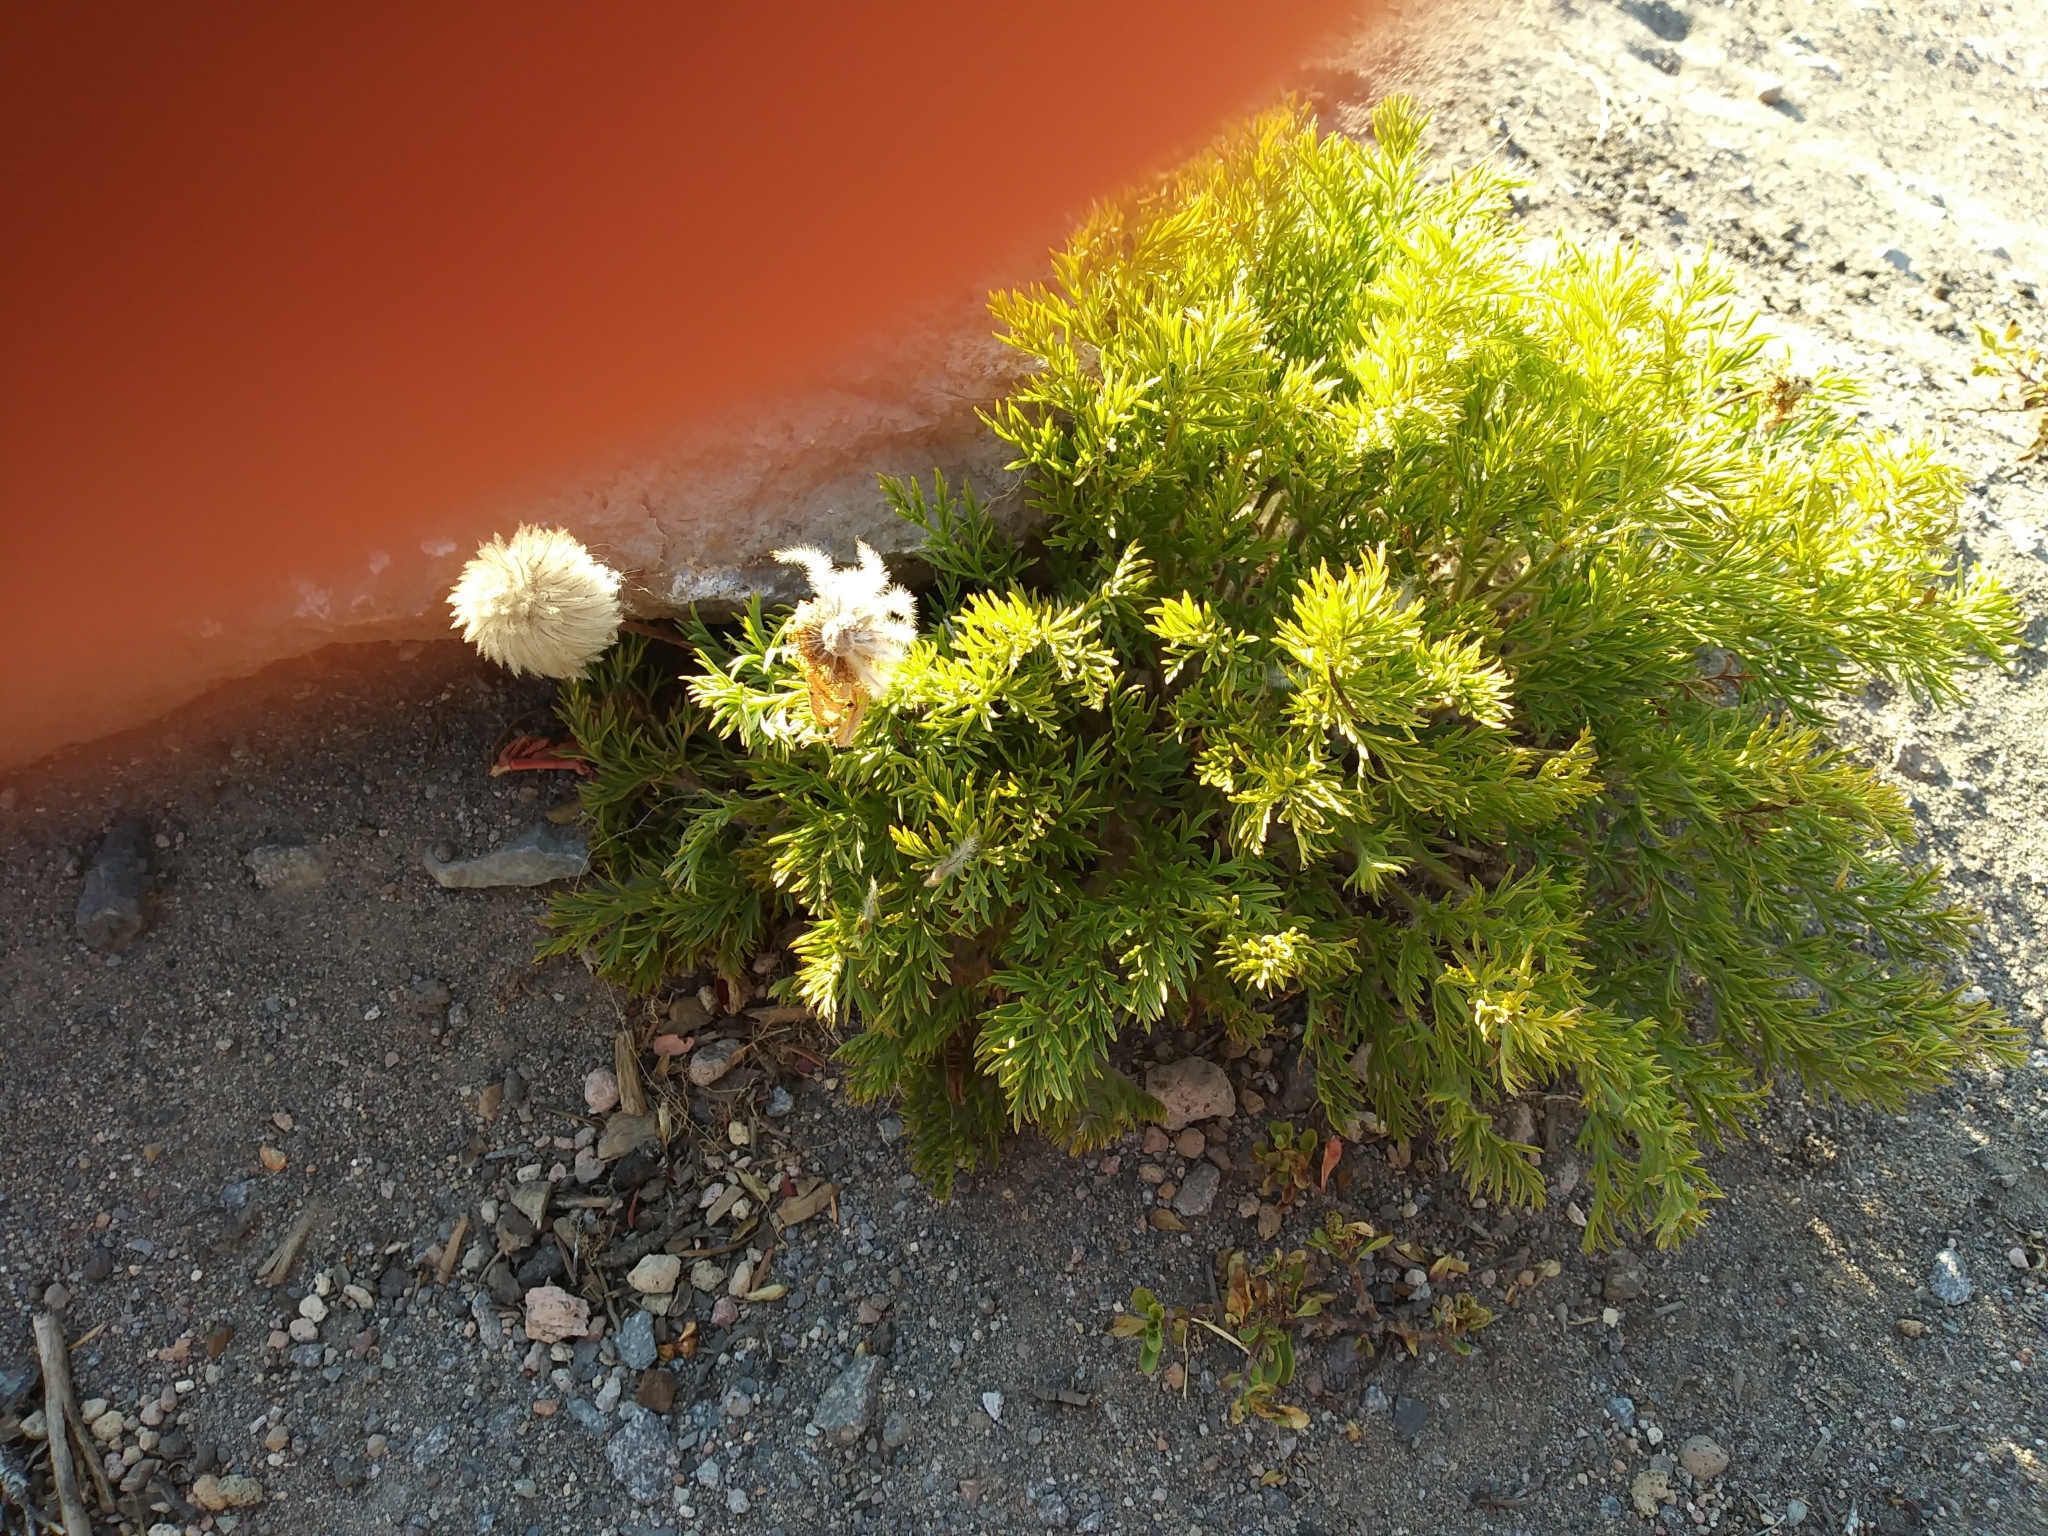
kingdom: Plantae
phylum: Tracheophyta
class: Magnoliopsida
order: Ranunculales
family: Ranunculaceae
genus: Pulsatilla
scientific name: Pulsatilla occidentalis
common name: Mountain pasqueflower
